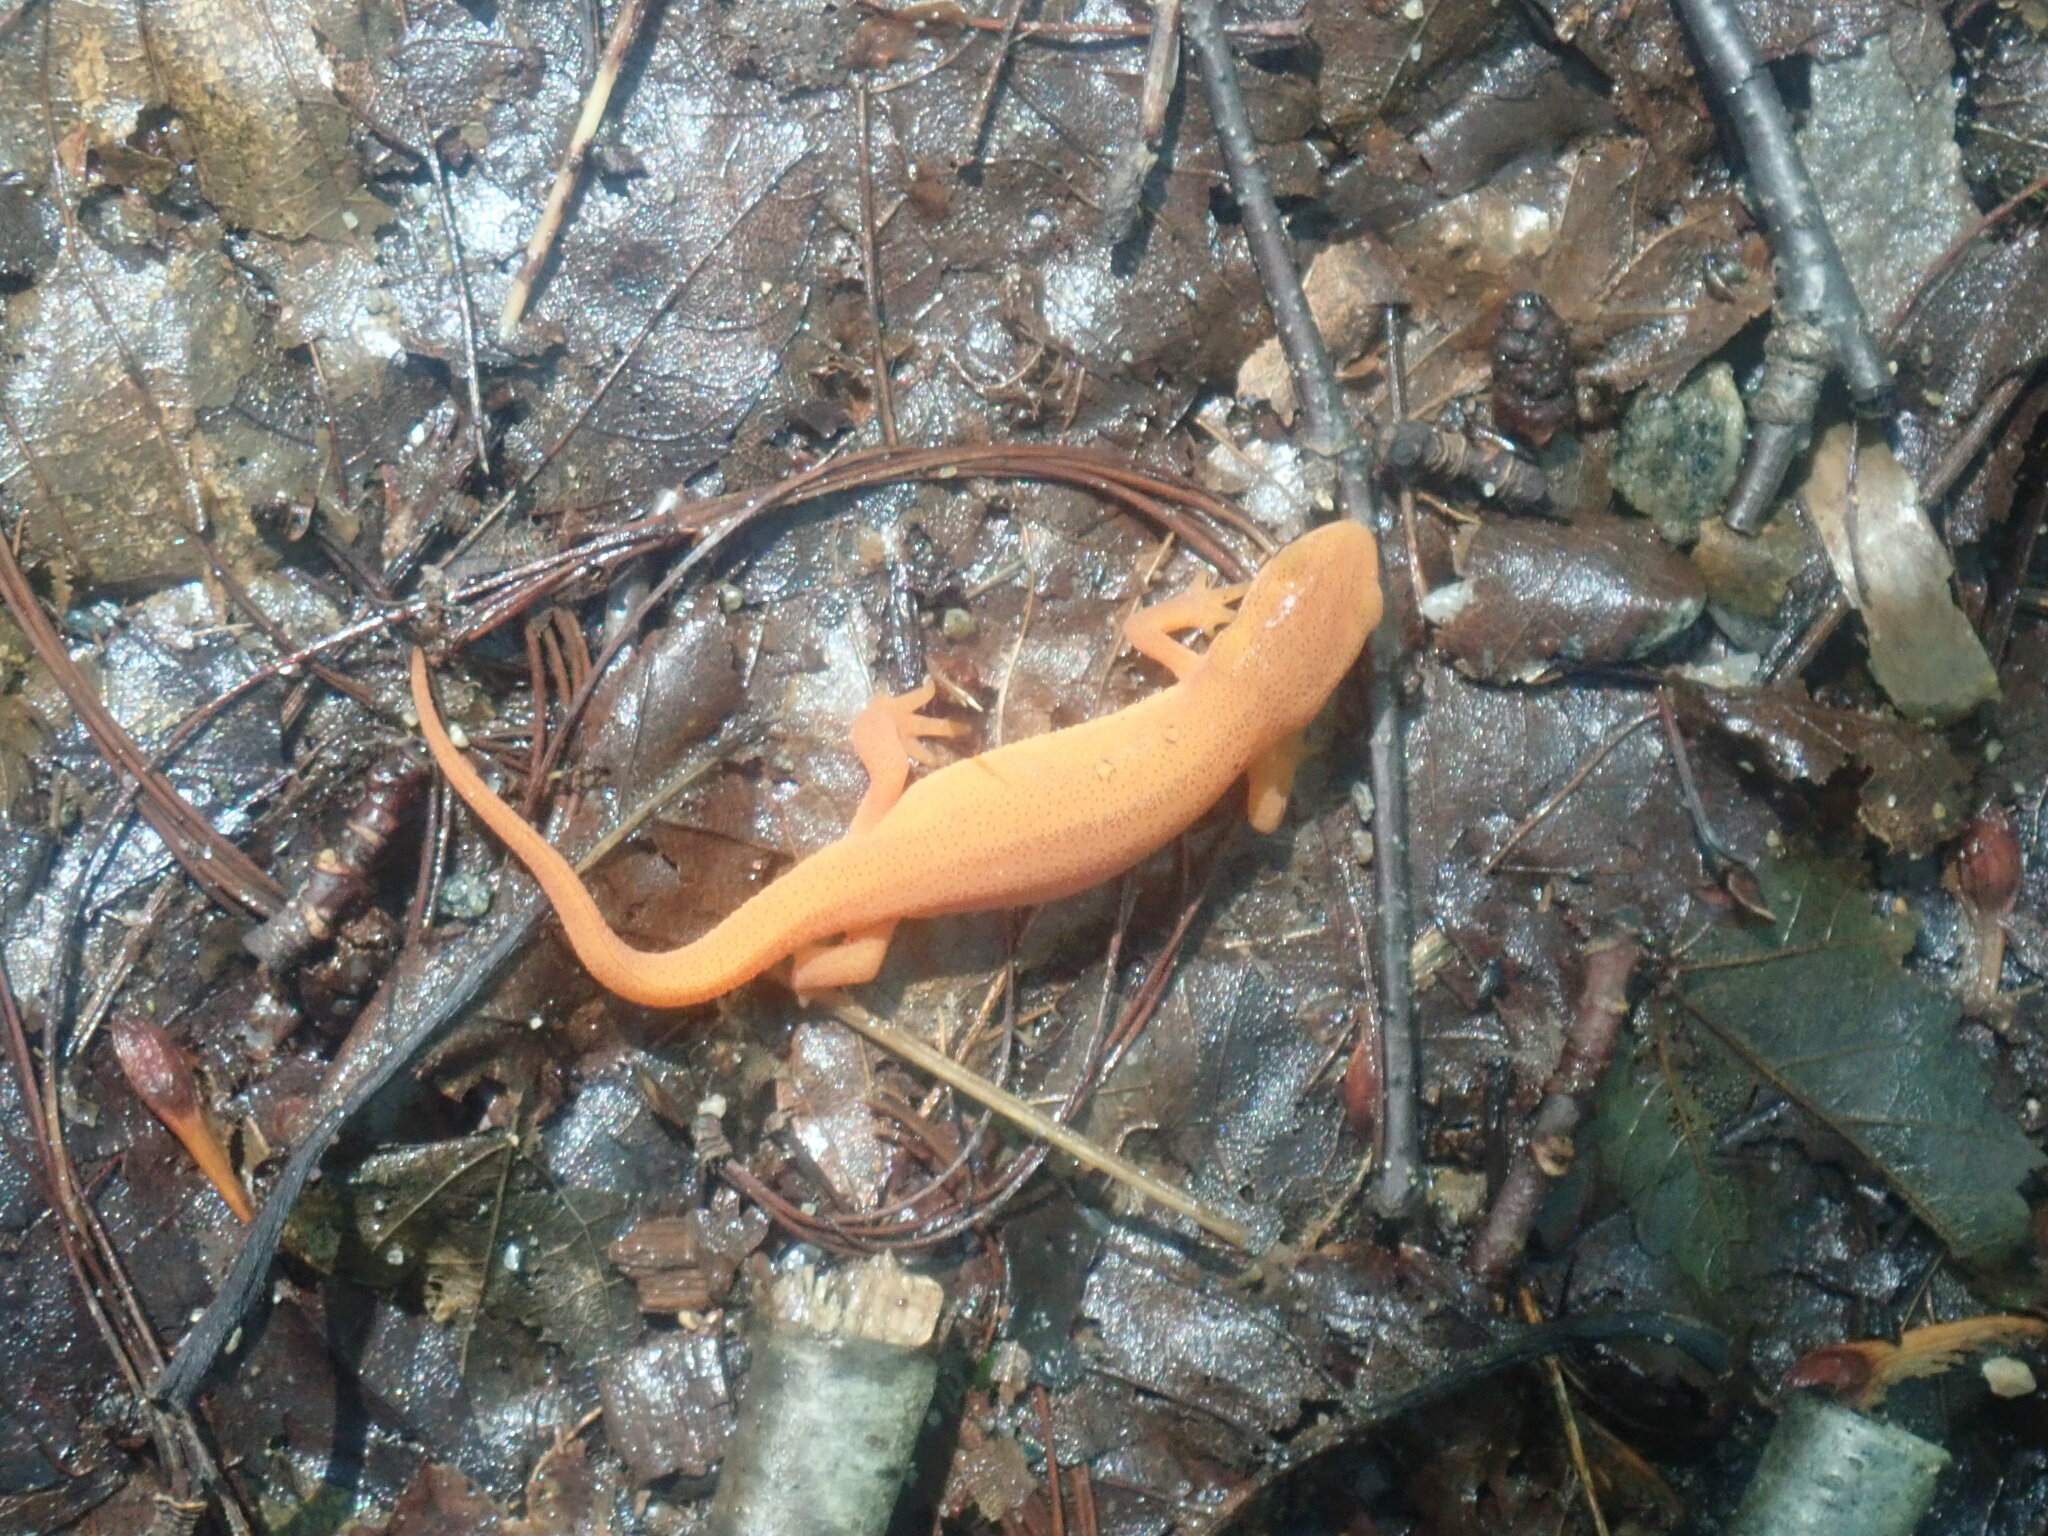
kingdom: Animalia
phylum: Chordata
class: Amphibia
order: Caudata
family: Salamandridae
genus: Notophthalmus
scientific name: Notophthalmus viridescens
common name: Eastern newt
